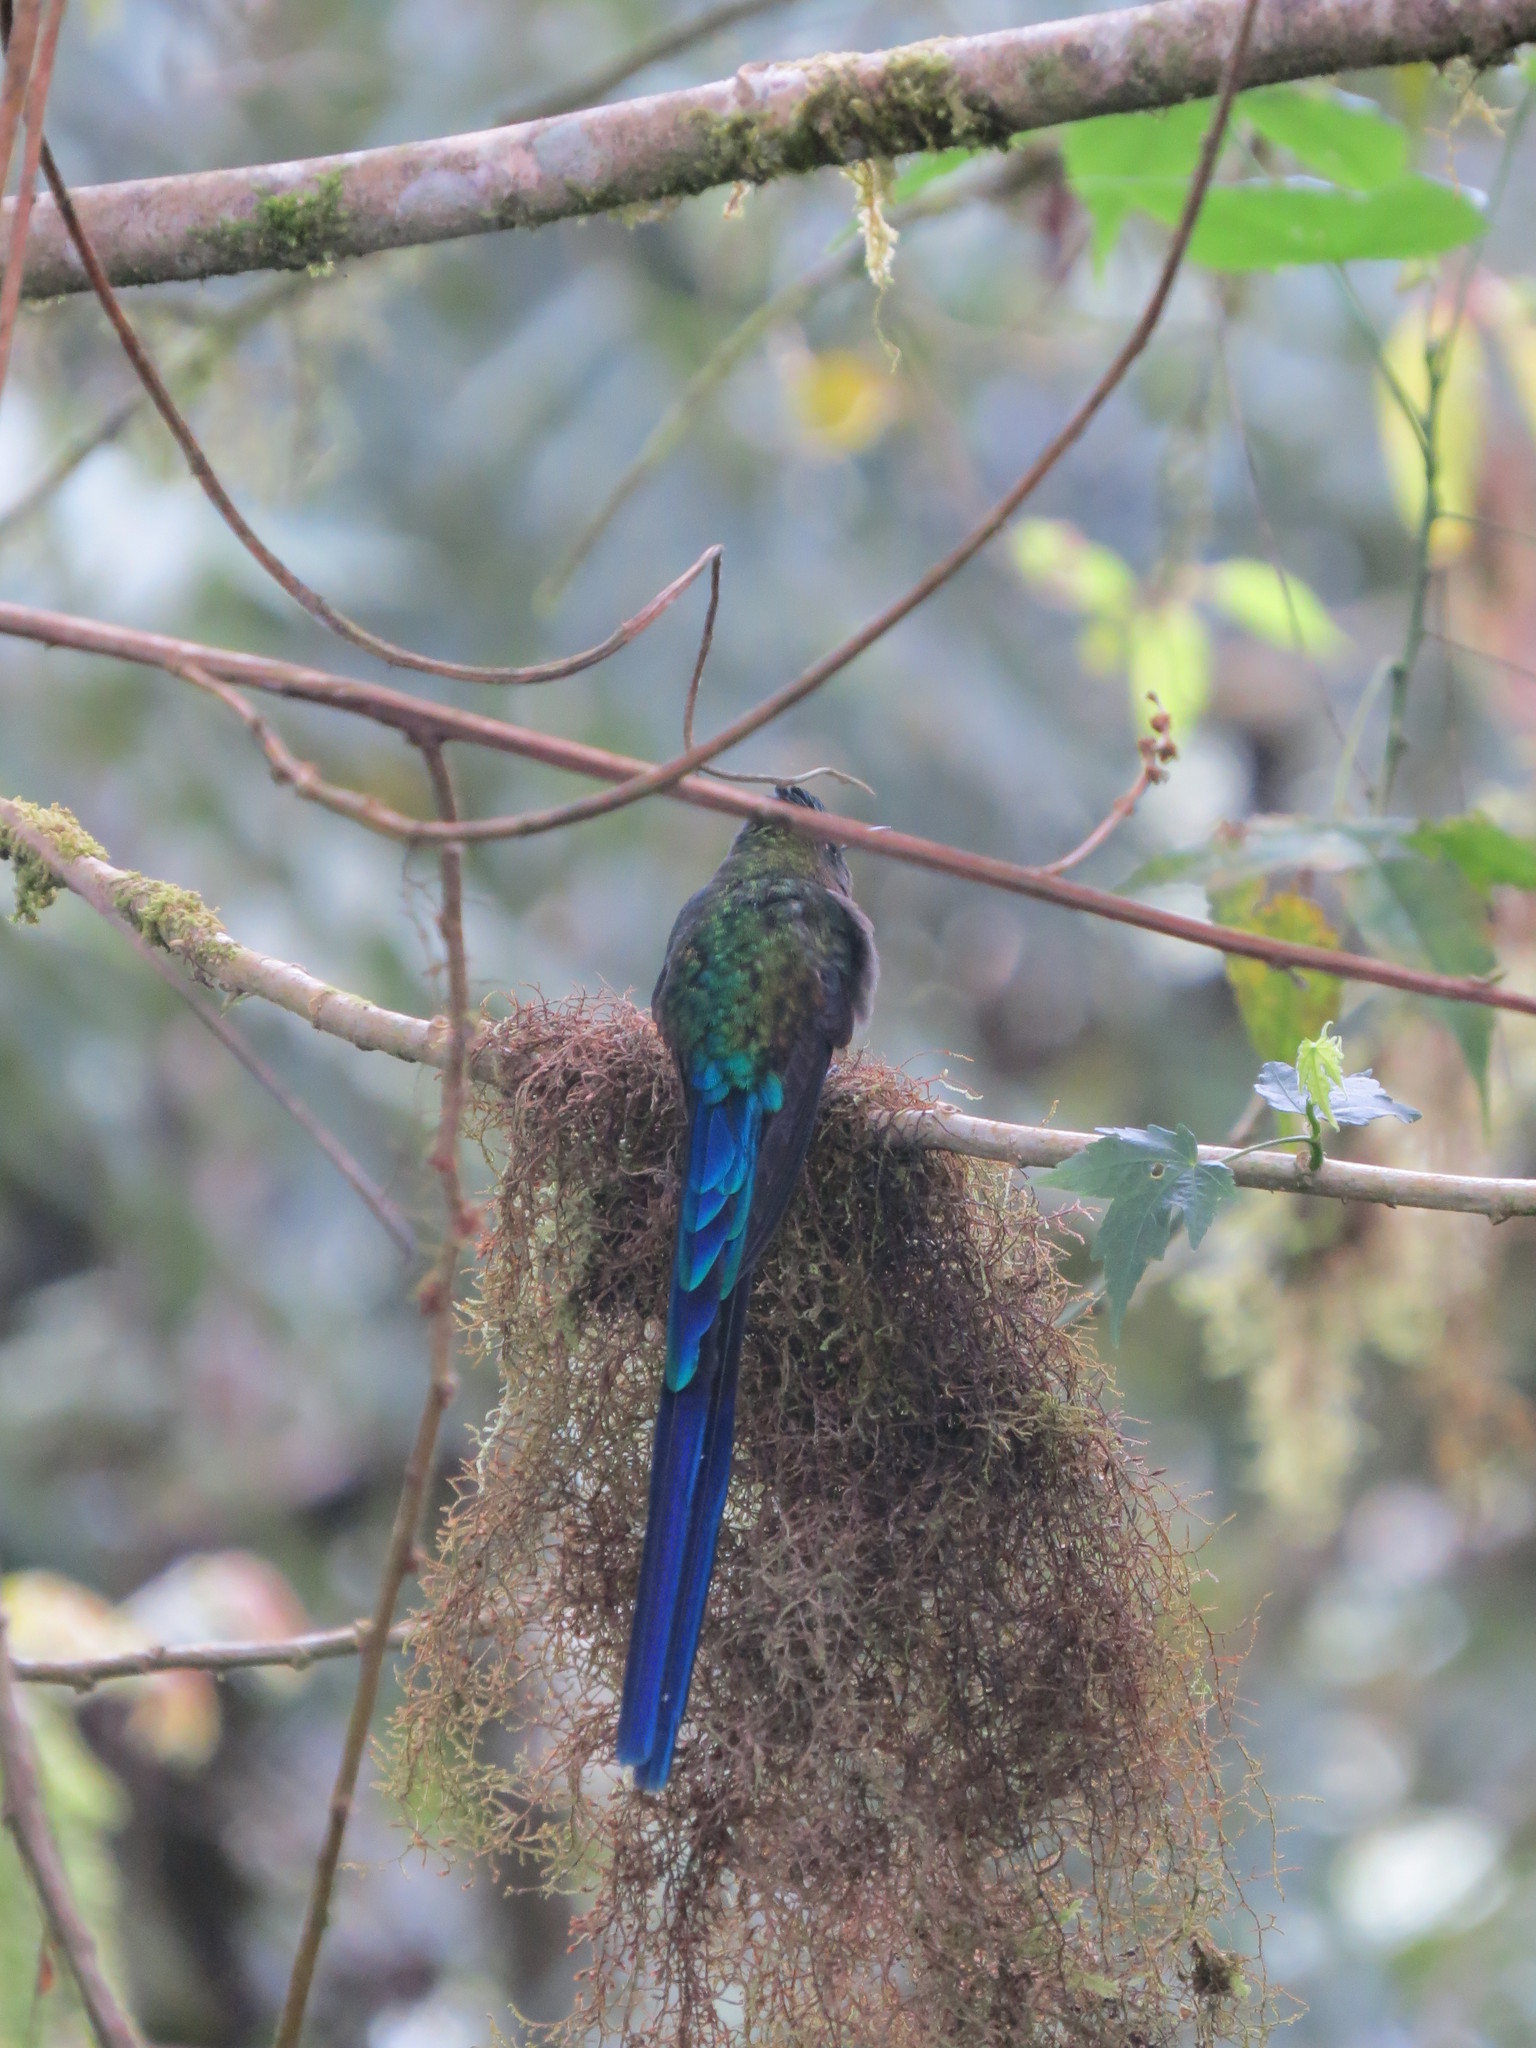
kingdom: Animalia
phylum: Chordata
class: Aves
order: Apodiformes
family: Trochilidae
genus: Aglaiocercus
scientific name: Aglaiocercus coelestis
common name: Violet-tailed sylph
